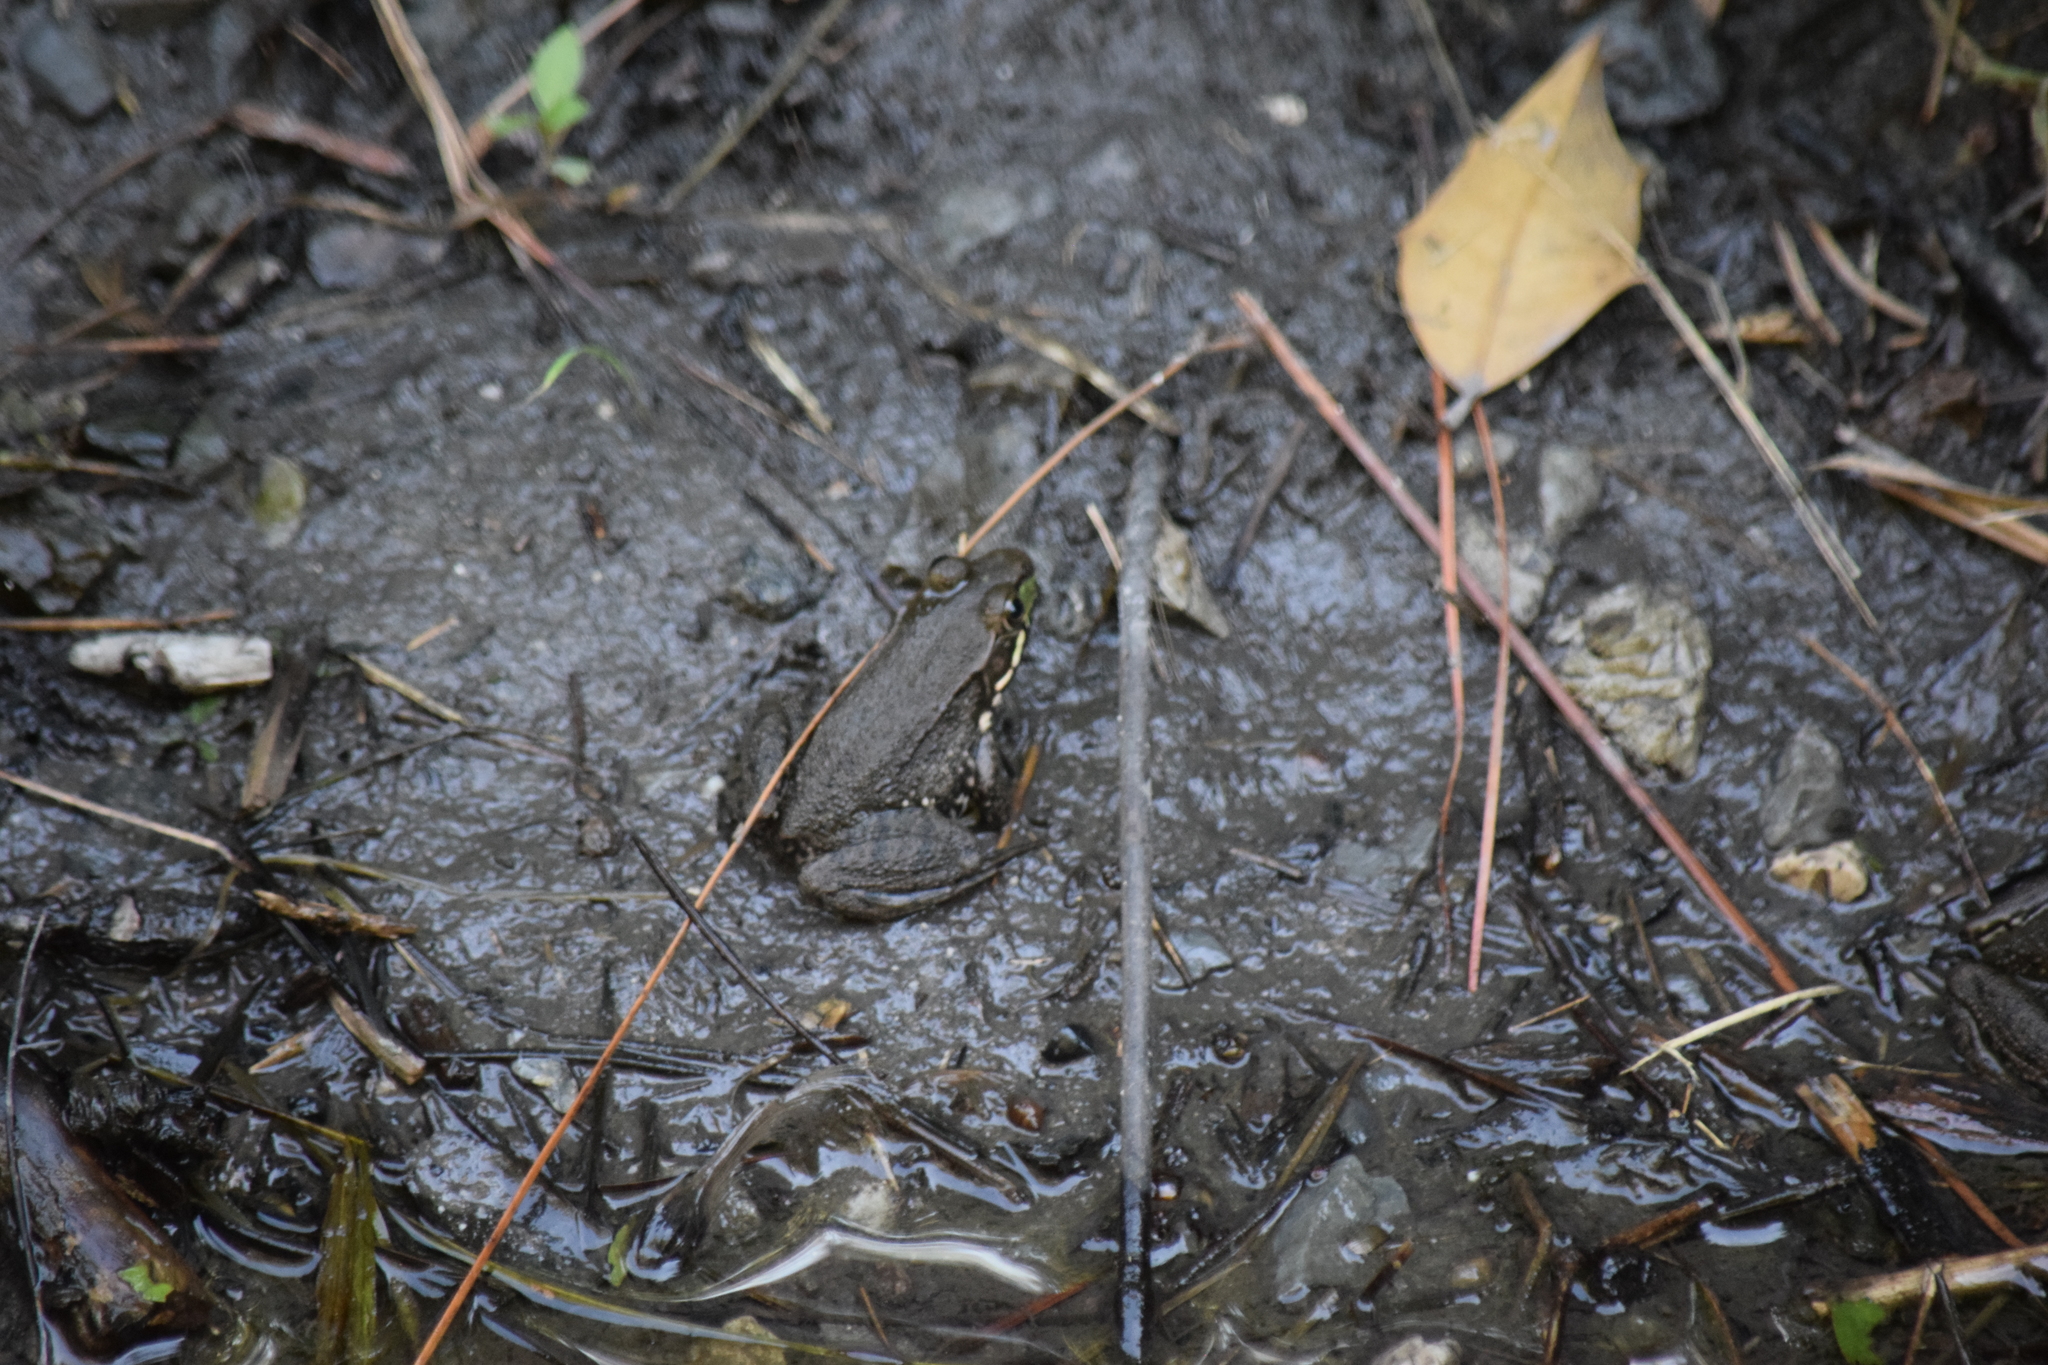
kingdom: Animalia
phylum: Chordata
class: Amphibia
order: Anura
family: Ranidae
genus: Lithobates
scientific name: Lithobates clamitans
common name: Green frog
